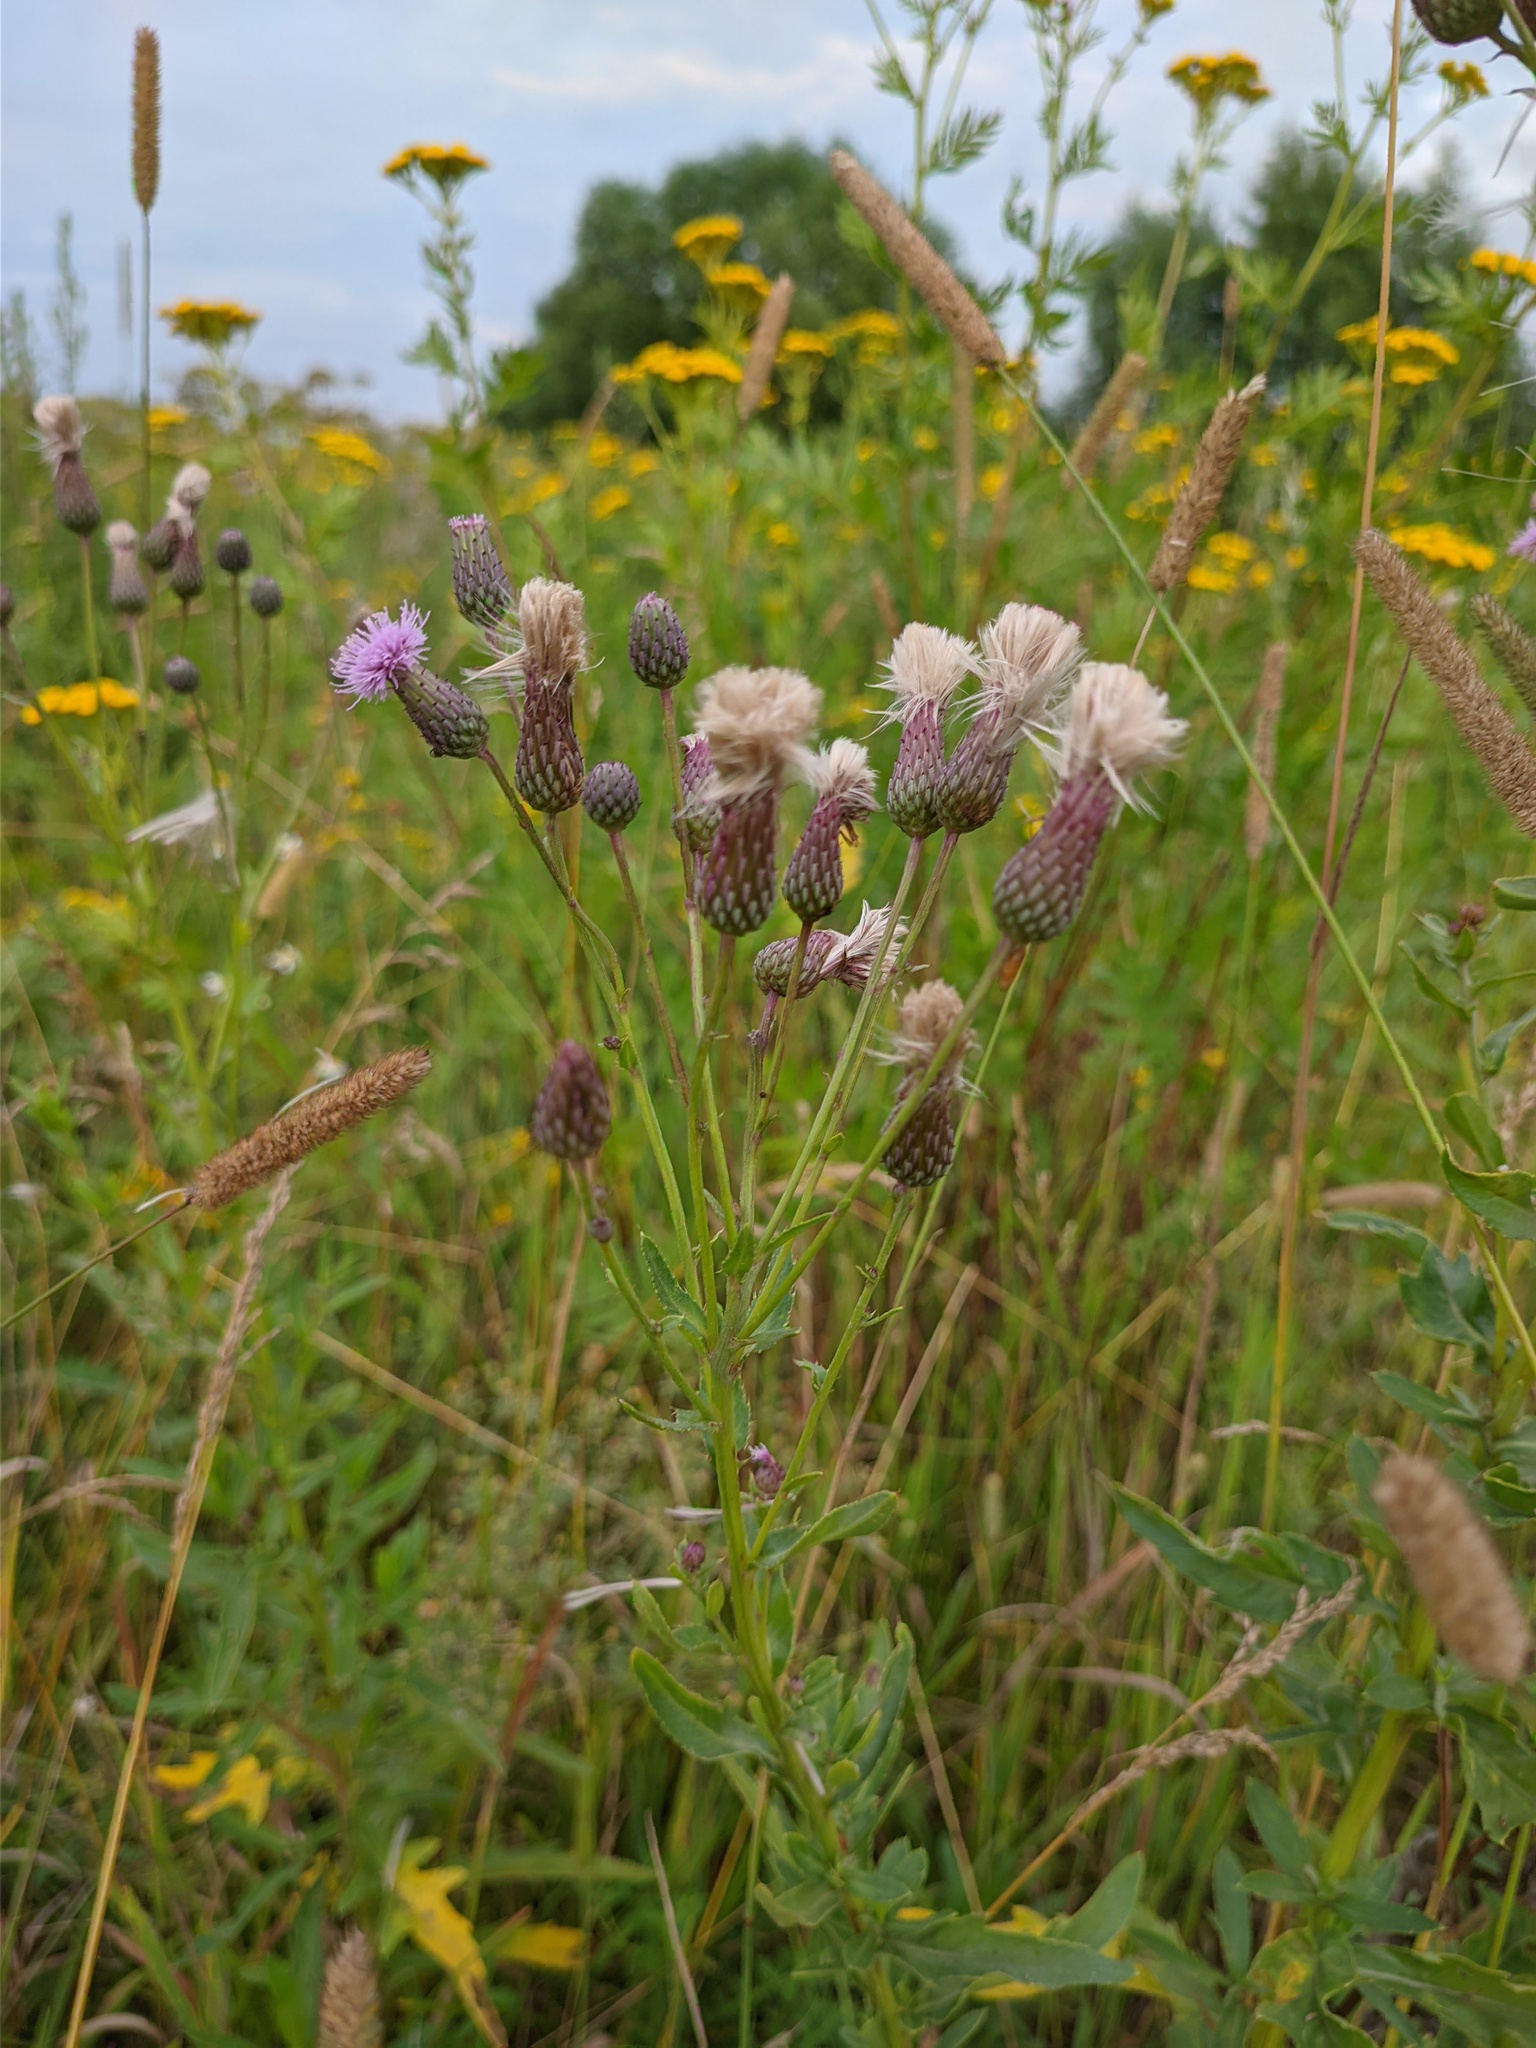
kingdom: Plantae
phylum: Tracheophyta
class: Magnoliopsida
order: Asterales
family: Asteraceae
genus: Cirsium
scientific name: Cirsium arvense
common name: Creeping thistle
